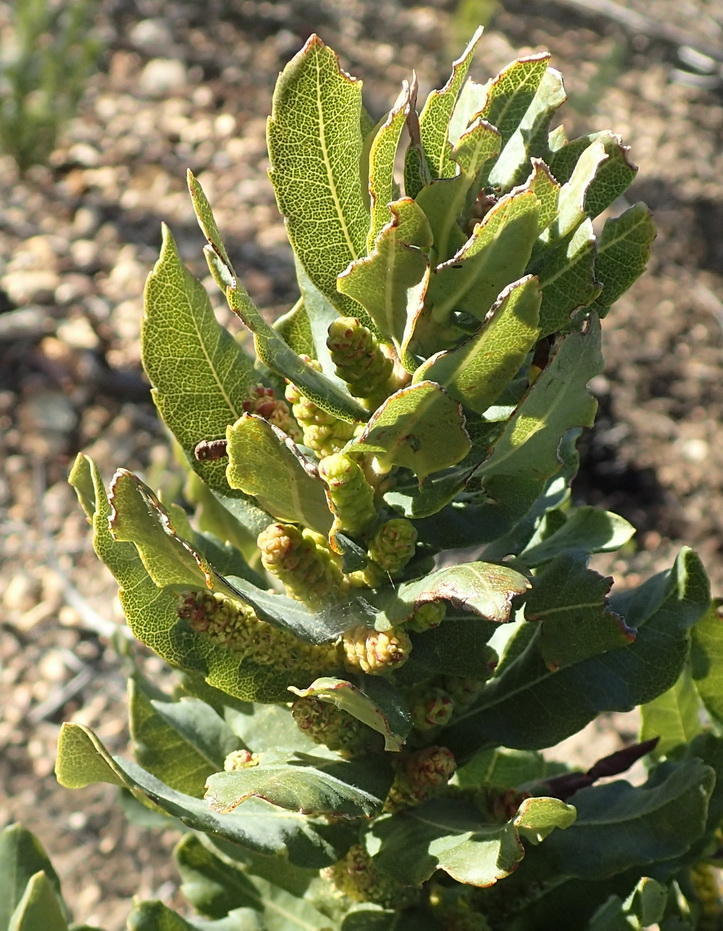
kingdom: Plantae
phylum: Tracheophyta
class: Magnoliopsida
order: Fagales
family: Myricaceae
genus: Morella
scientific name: Morella humilis
